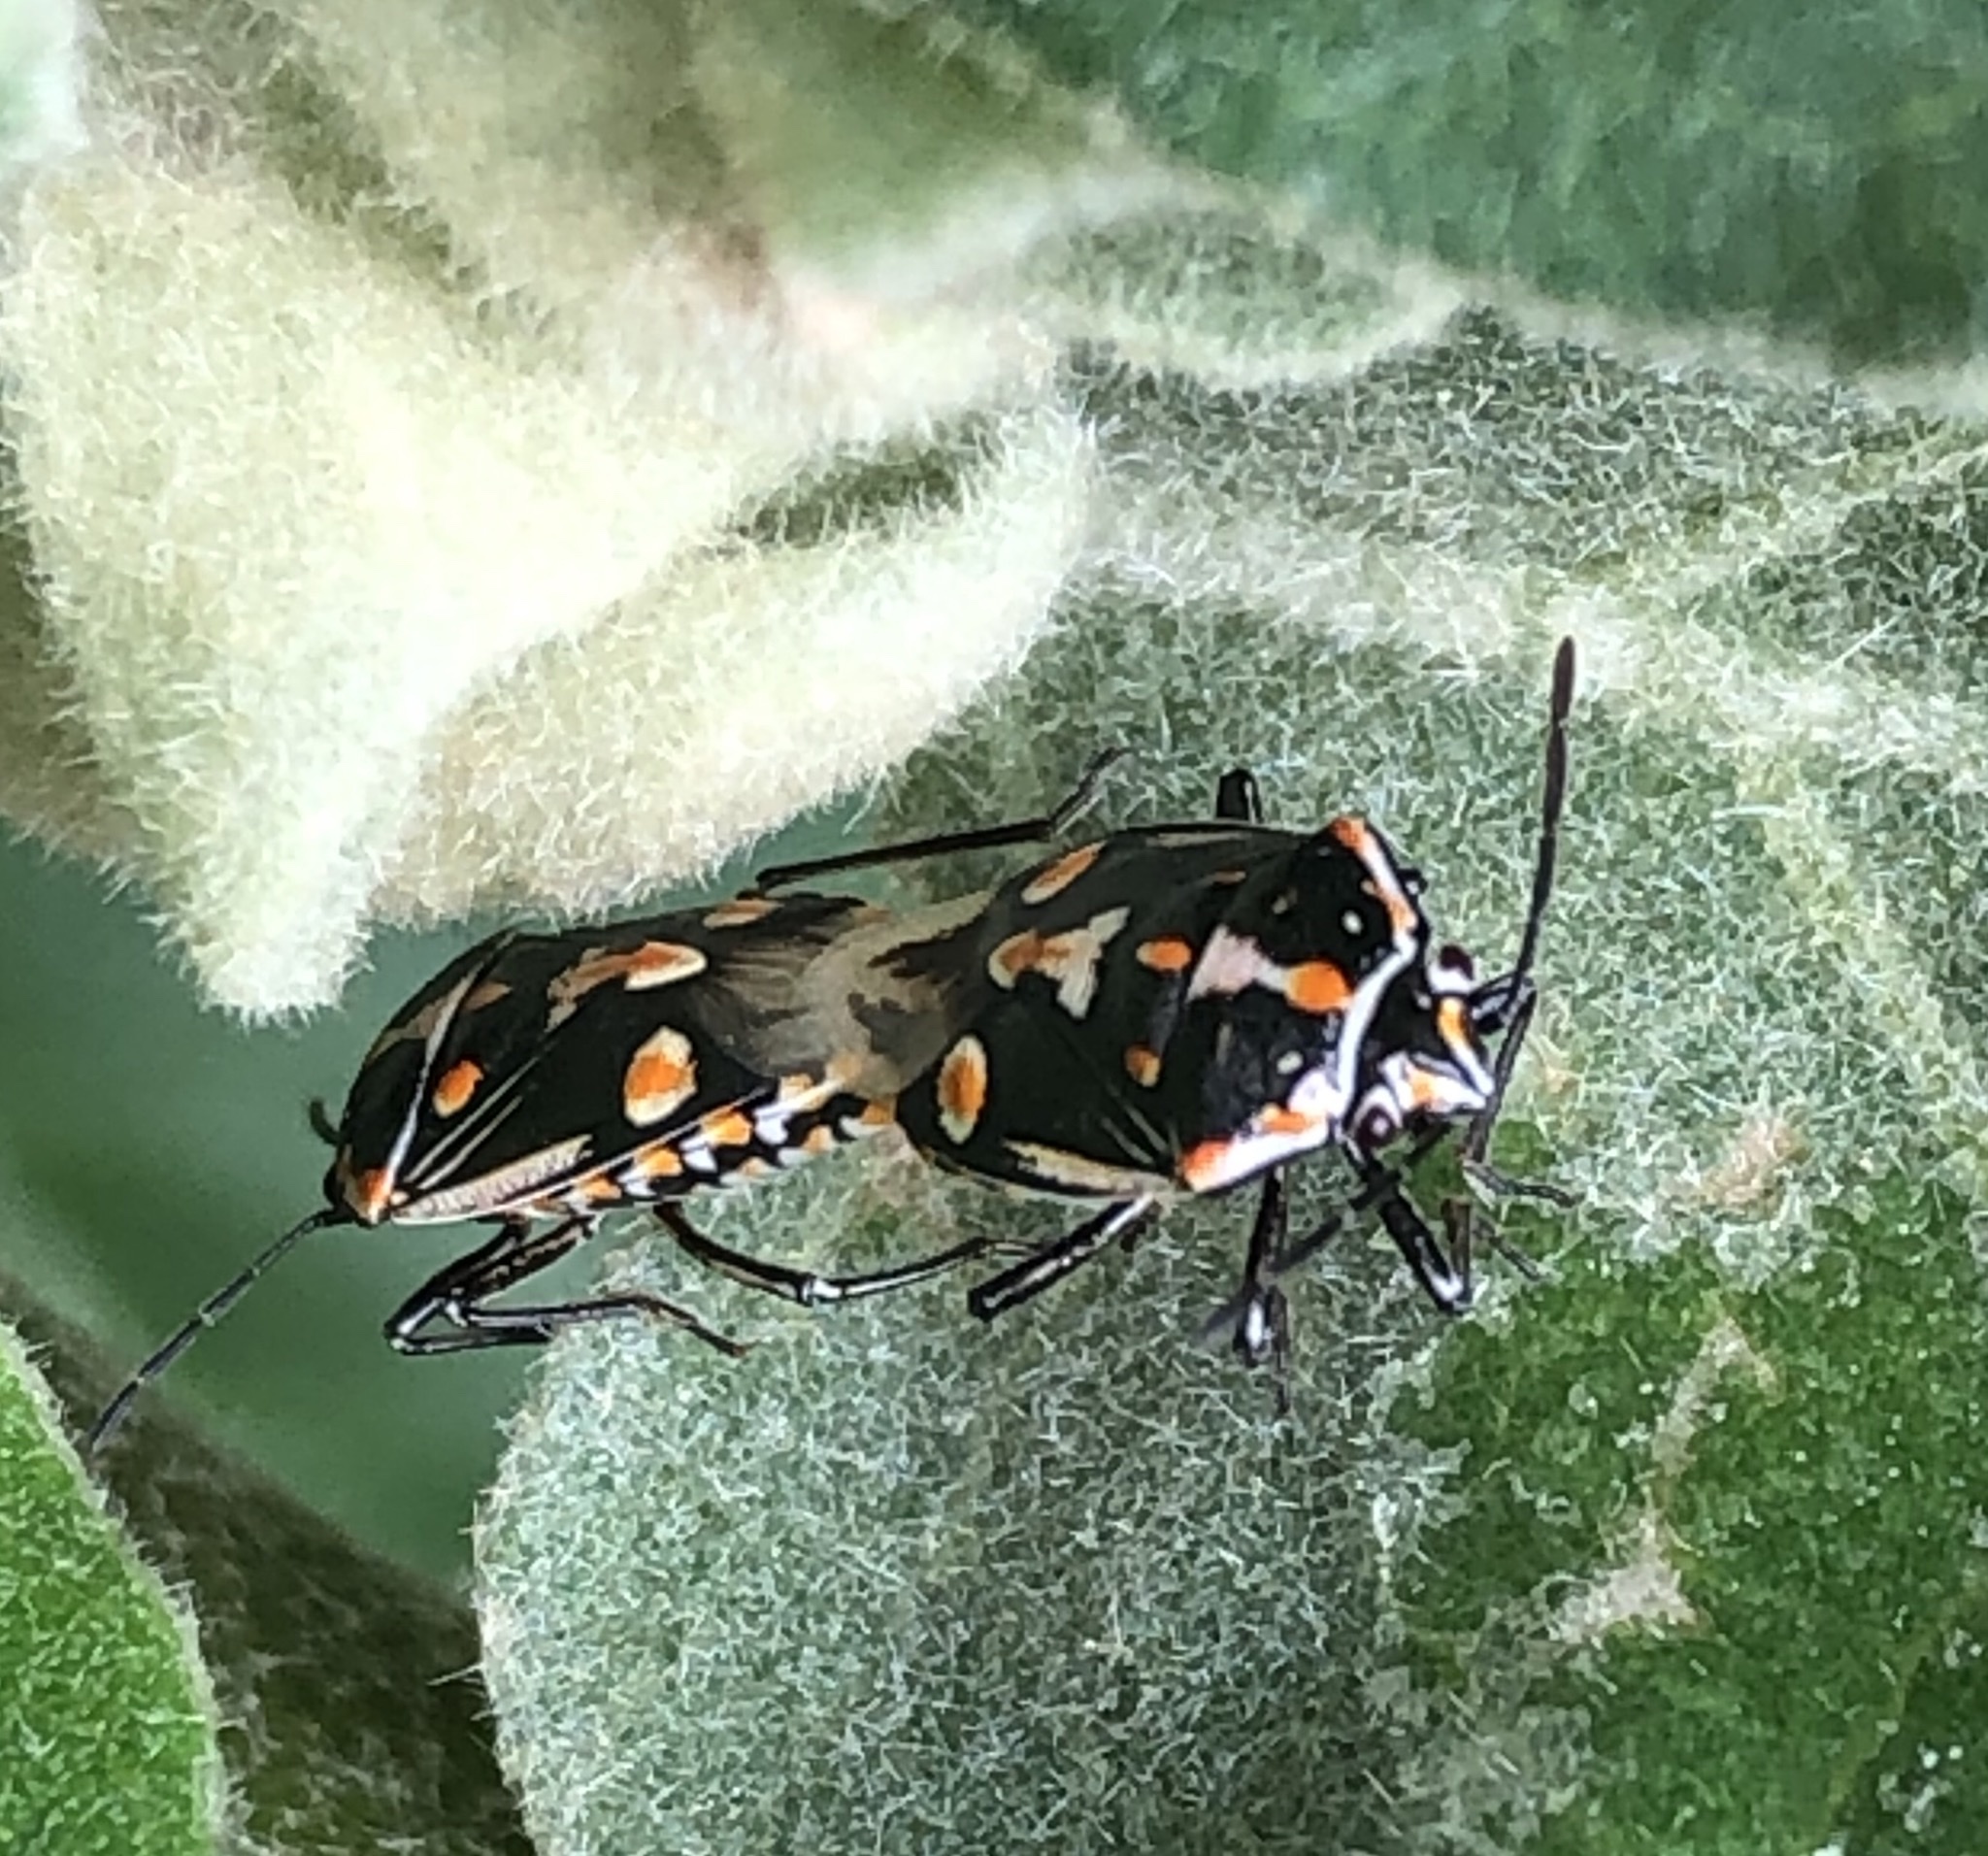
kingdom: Animalia
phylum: Arthropoda
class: Insecta
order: Hemiptera
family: Pentatomidae
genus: Bagrada
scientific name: Bagrada hilaris
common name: Bagrada bug
